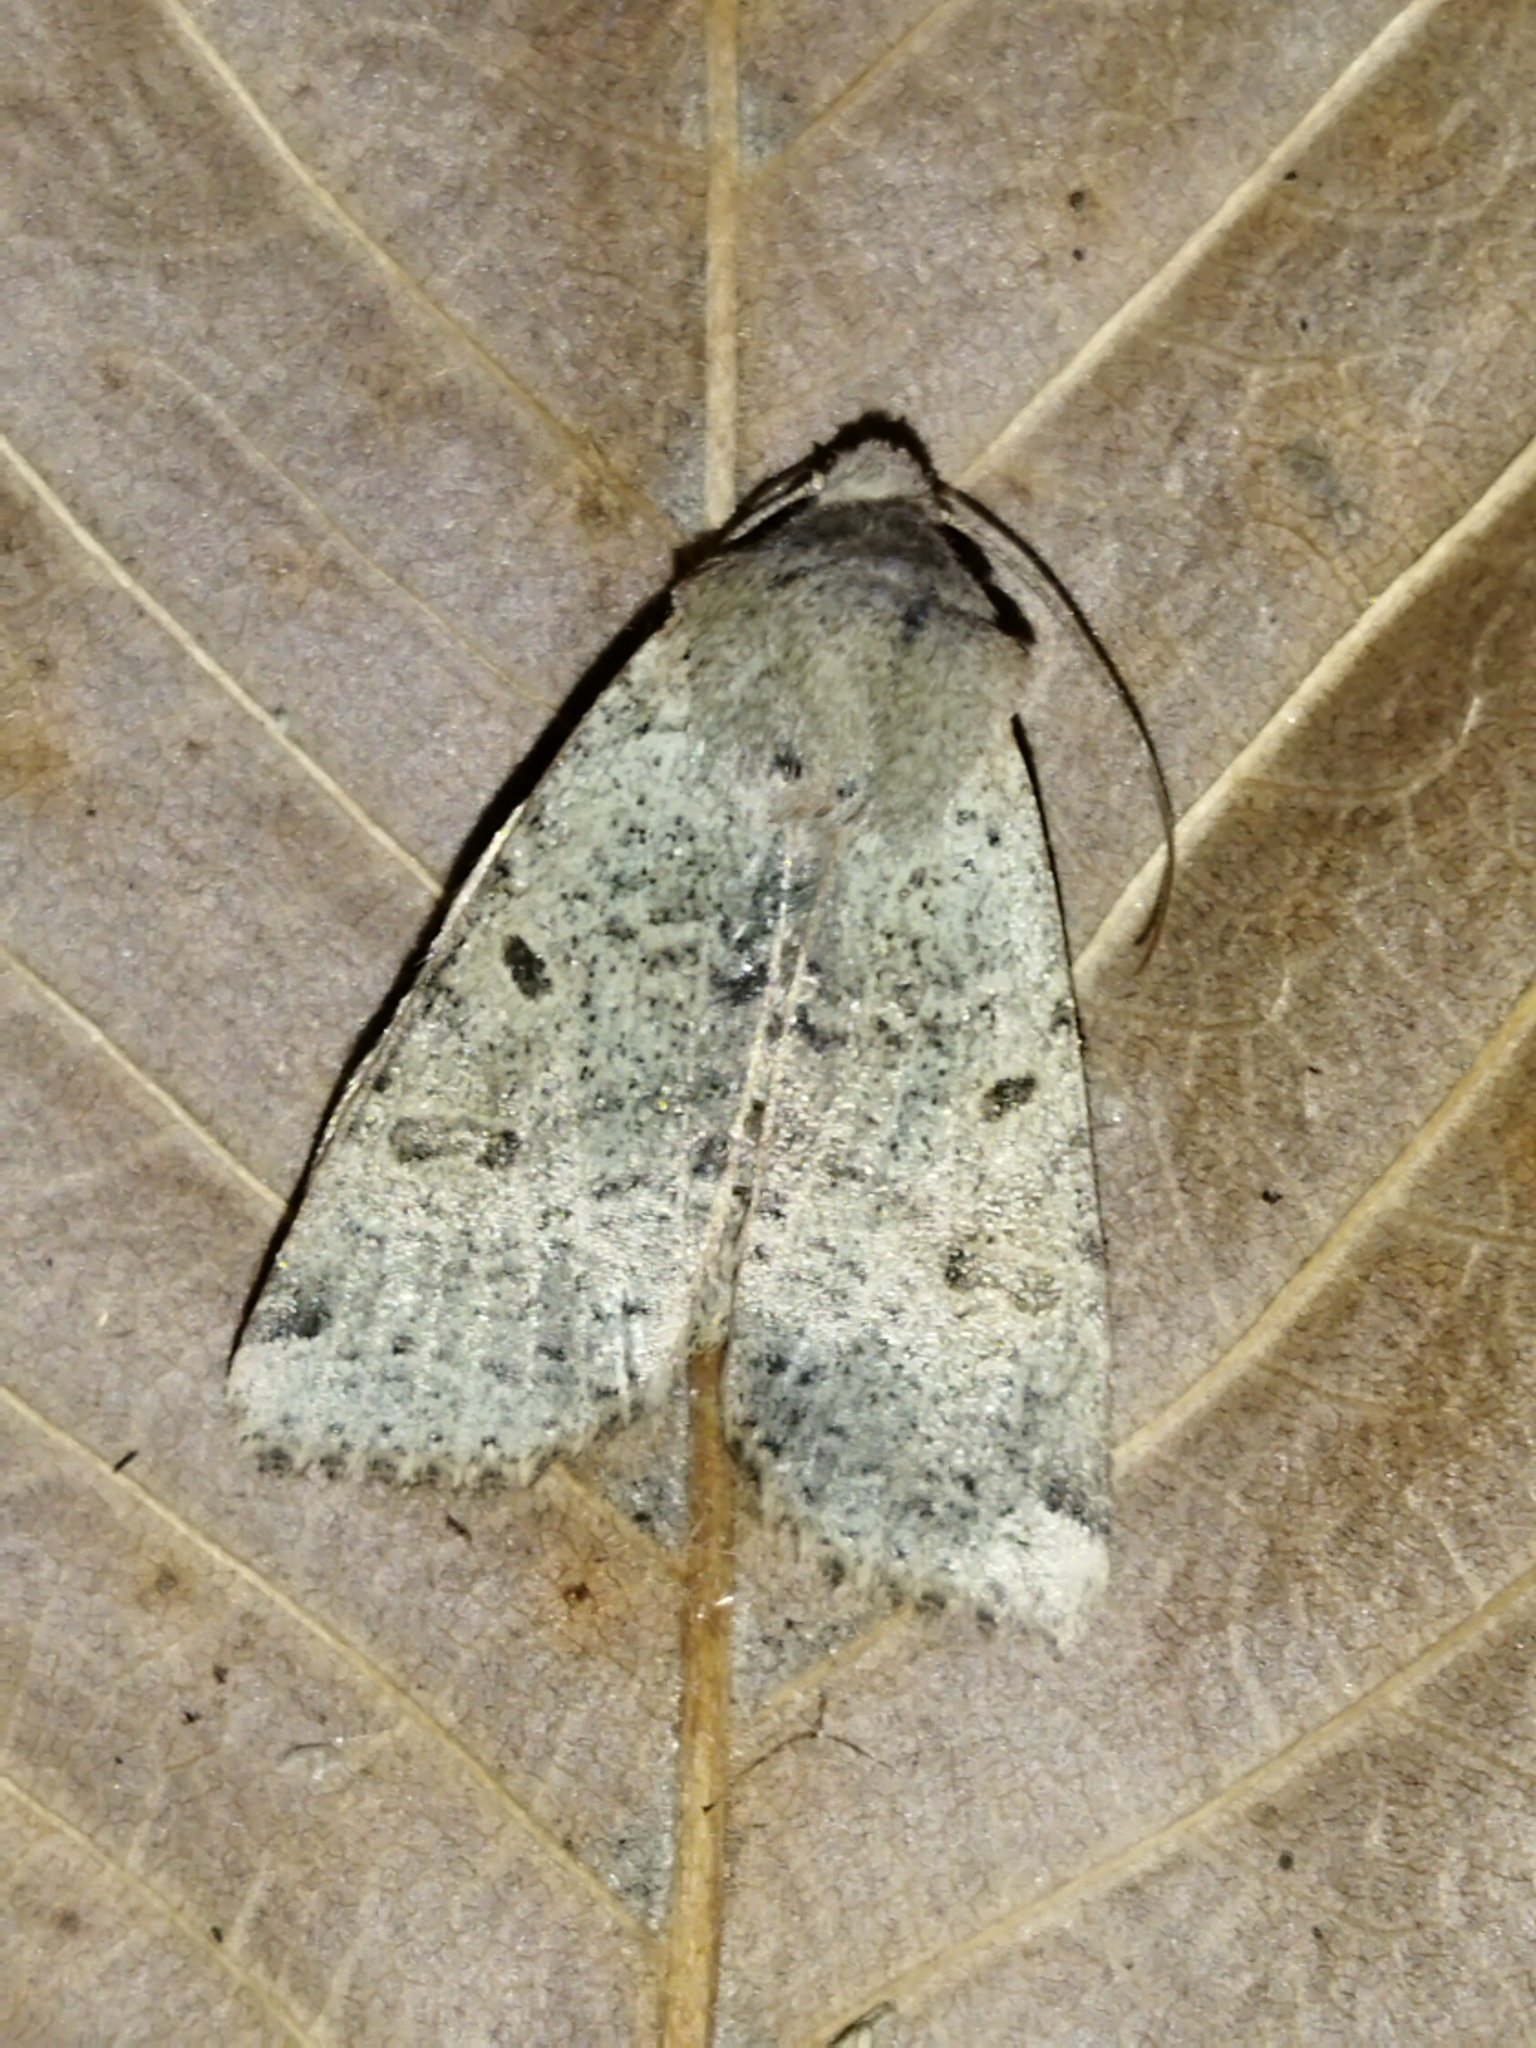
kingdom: Animalia
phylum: Arthropoda
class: Insecta
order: Lepidoptera
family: Noctuidae
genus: Agrochola
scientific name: Agrochola lychnidis
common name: Beaded chestnut
